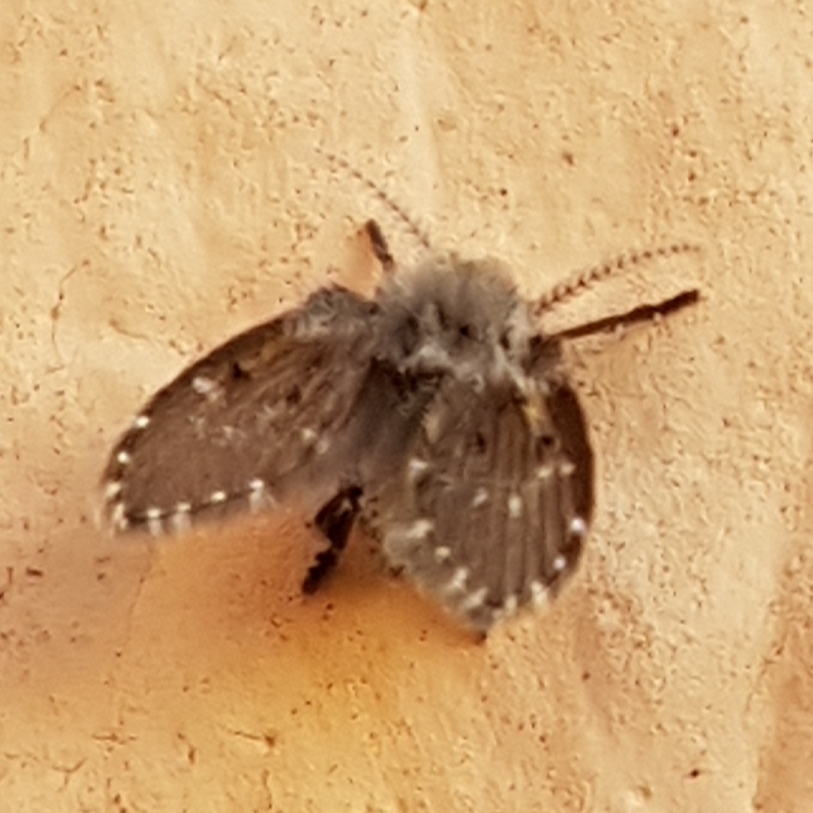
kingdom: Animalia
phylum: Arthropoda
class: Insecta
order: Diptera
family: Psychodidae
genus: Clogmia
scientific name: Clogmia albipunctatus
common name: White-spotted moth fly
